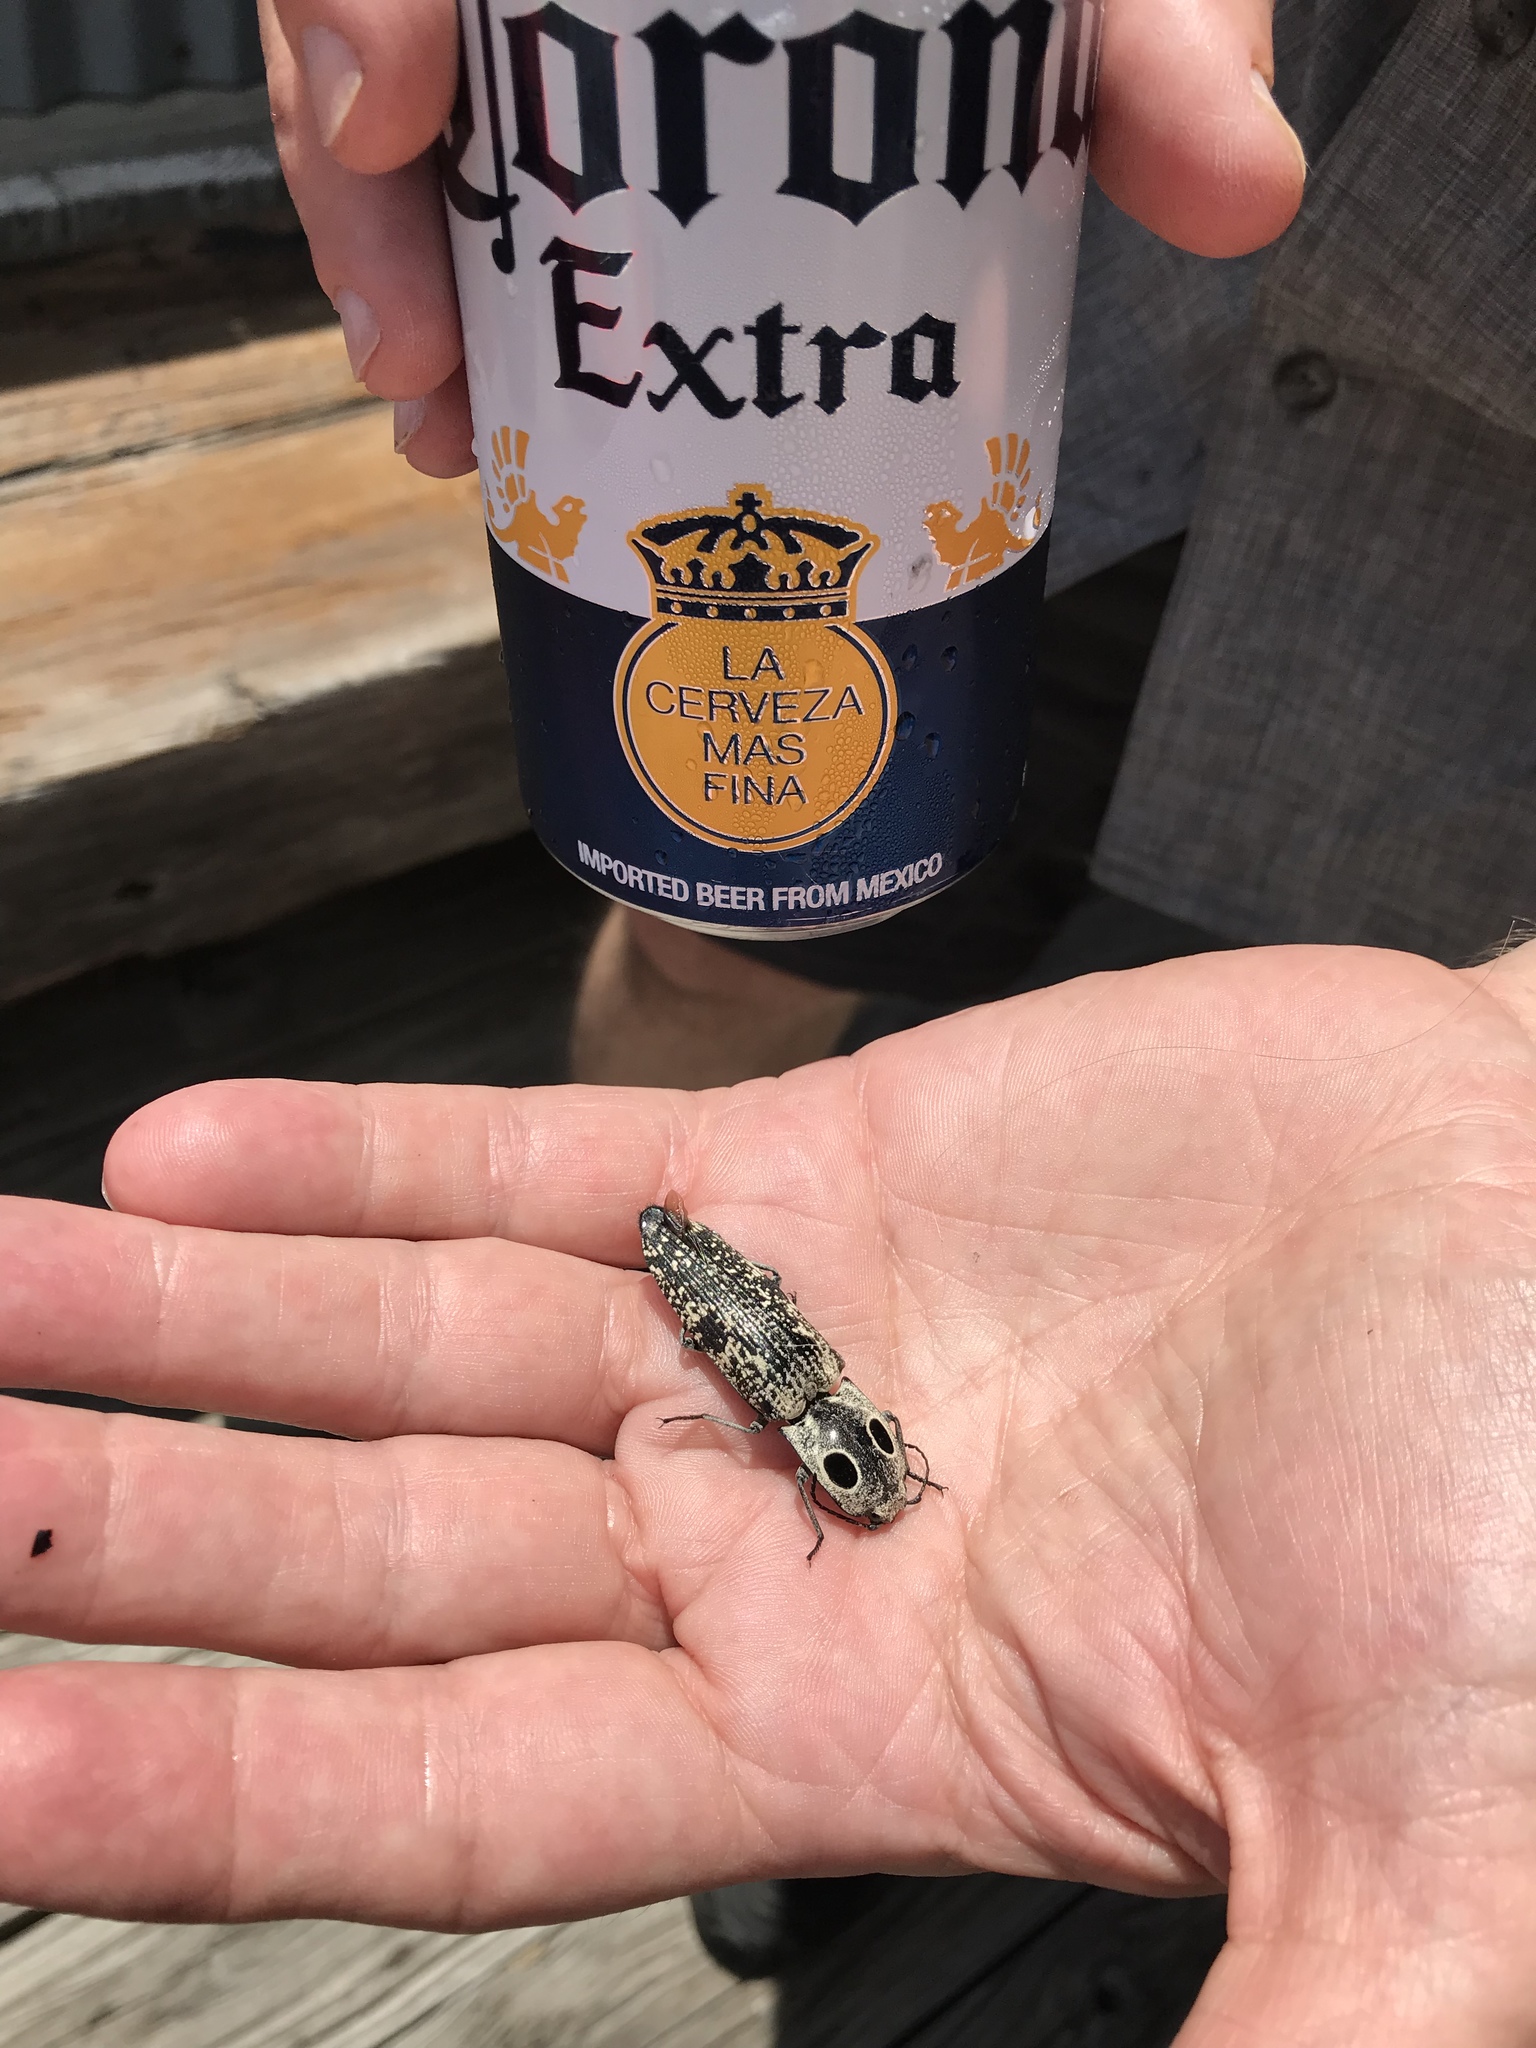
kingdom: Animalia
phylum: Arthropoda
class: Insecta
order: Coleoptera
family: Elateridae
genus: Alaus
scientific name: Alaus oculatus
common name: Eastern eyed click beetle
